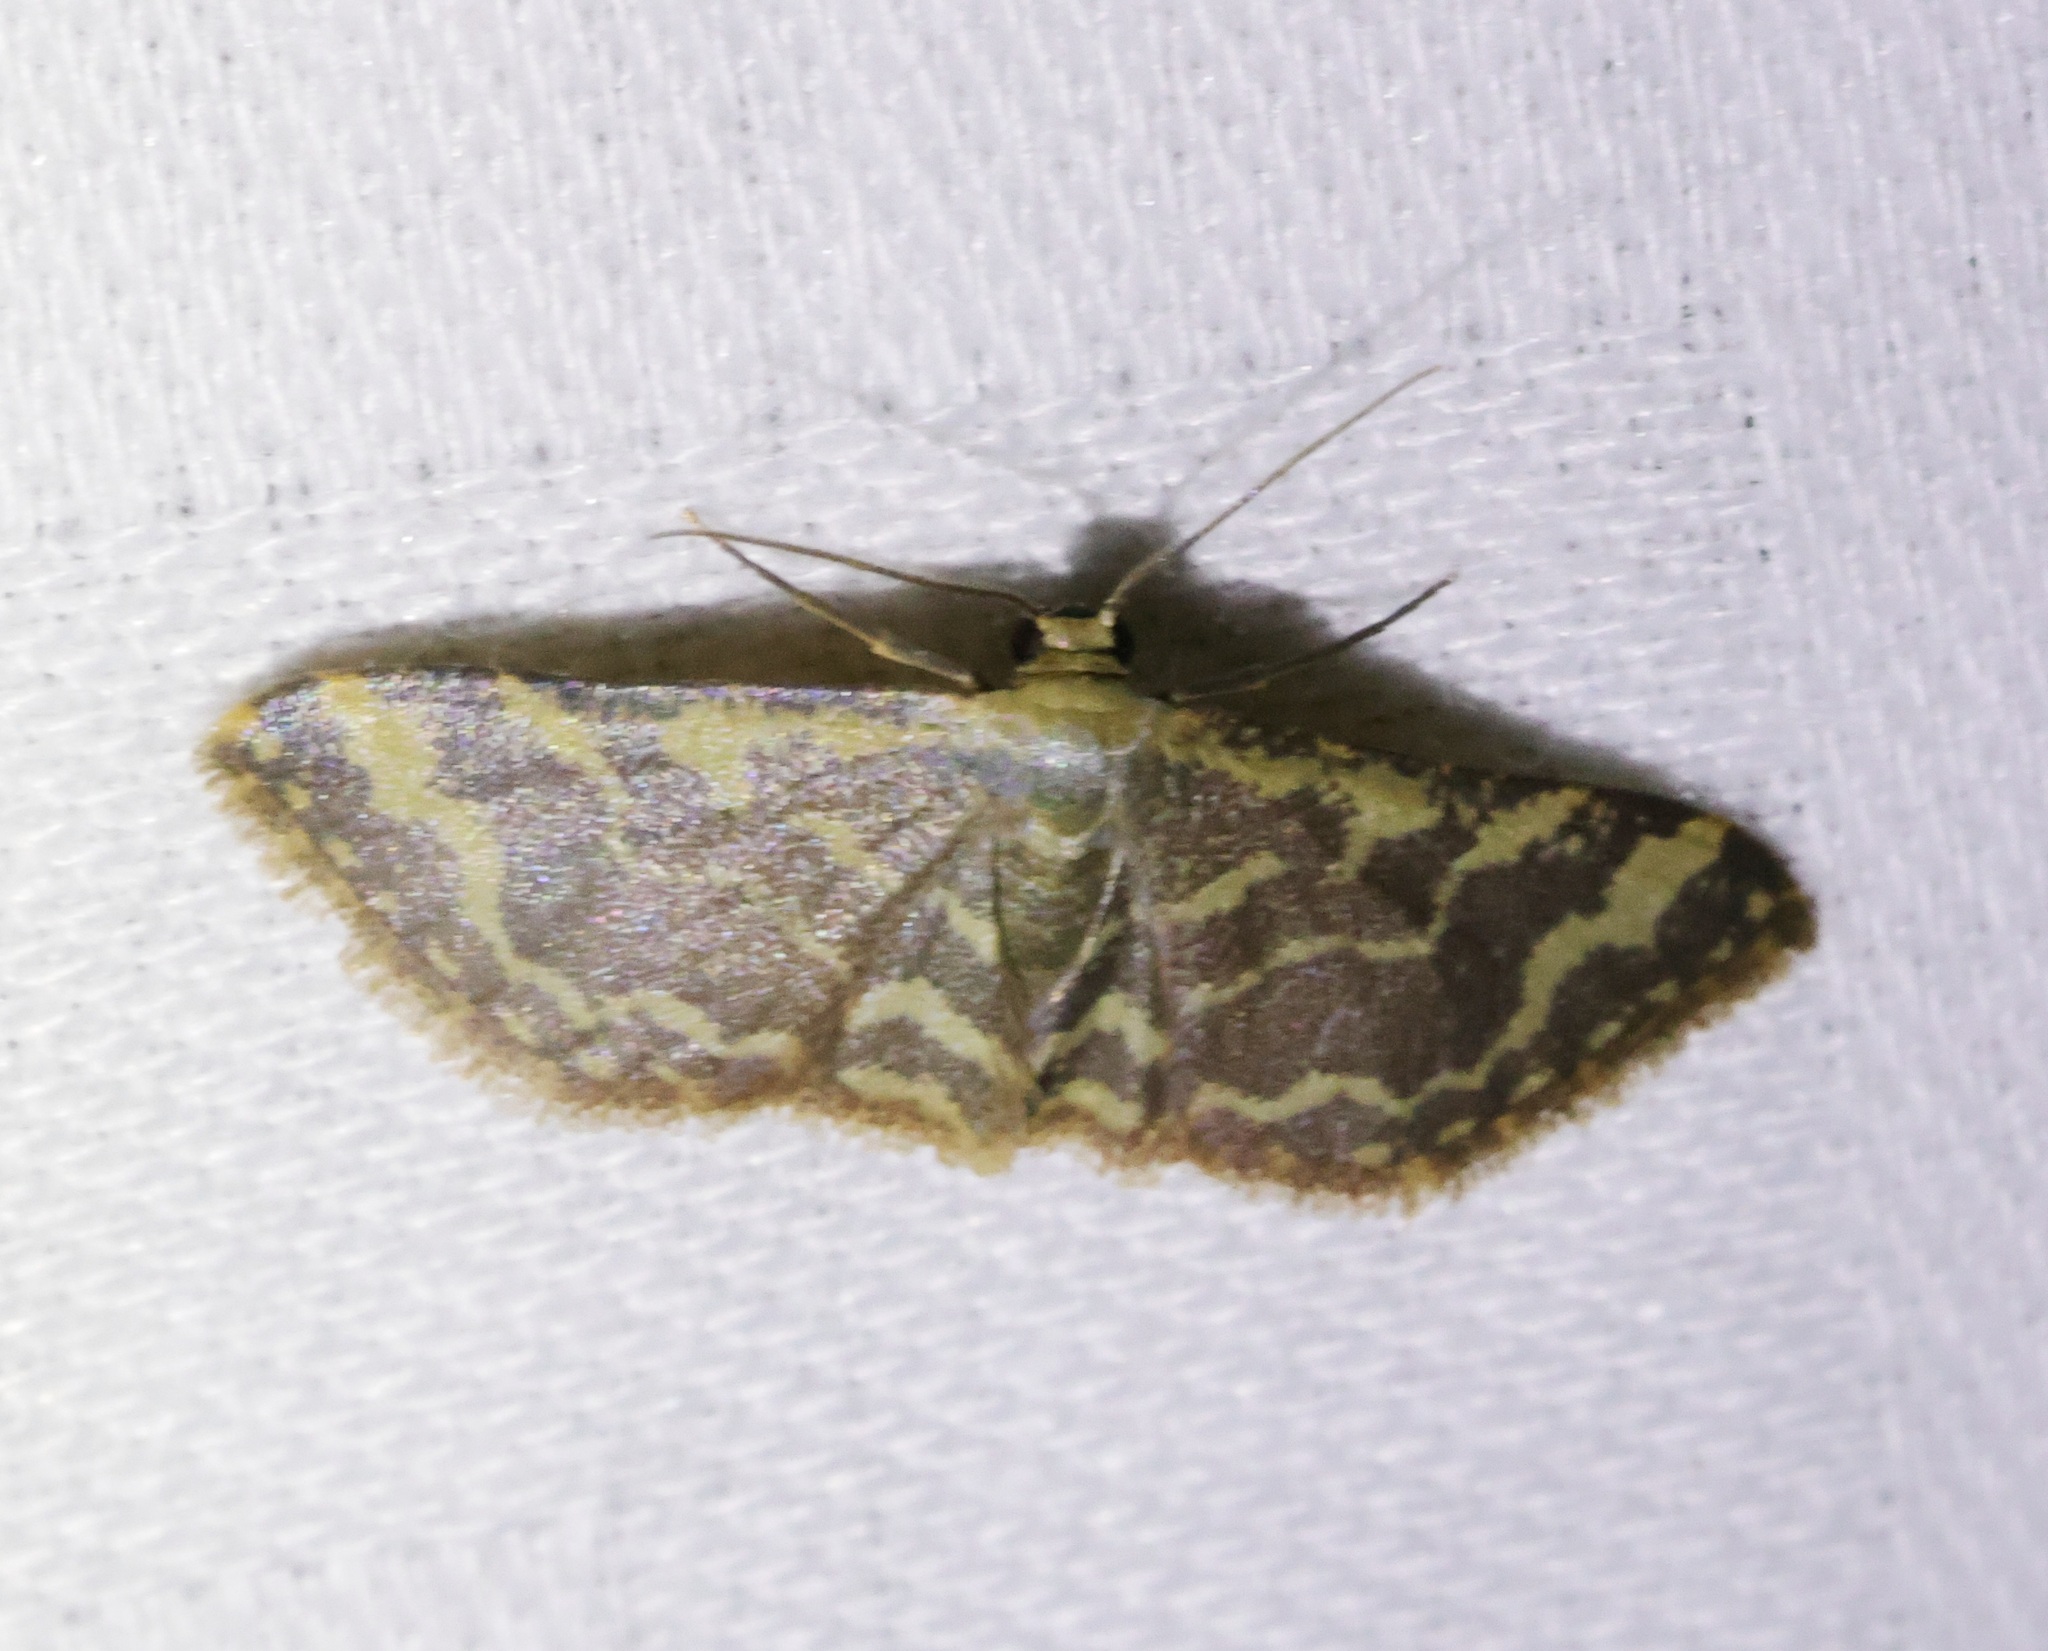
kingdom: Animalia
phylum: Arthropoda
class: Insecta
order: Lepidoptera
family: Geometridae
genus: Lophophleps
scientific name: Lophophleps purpurea
